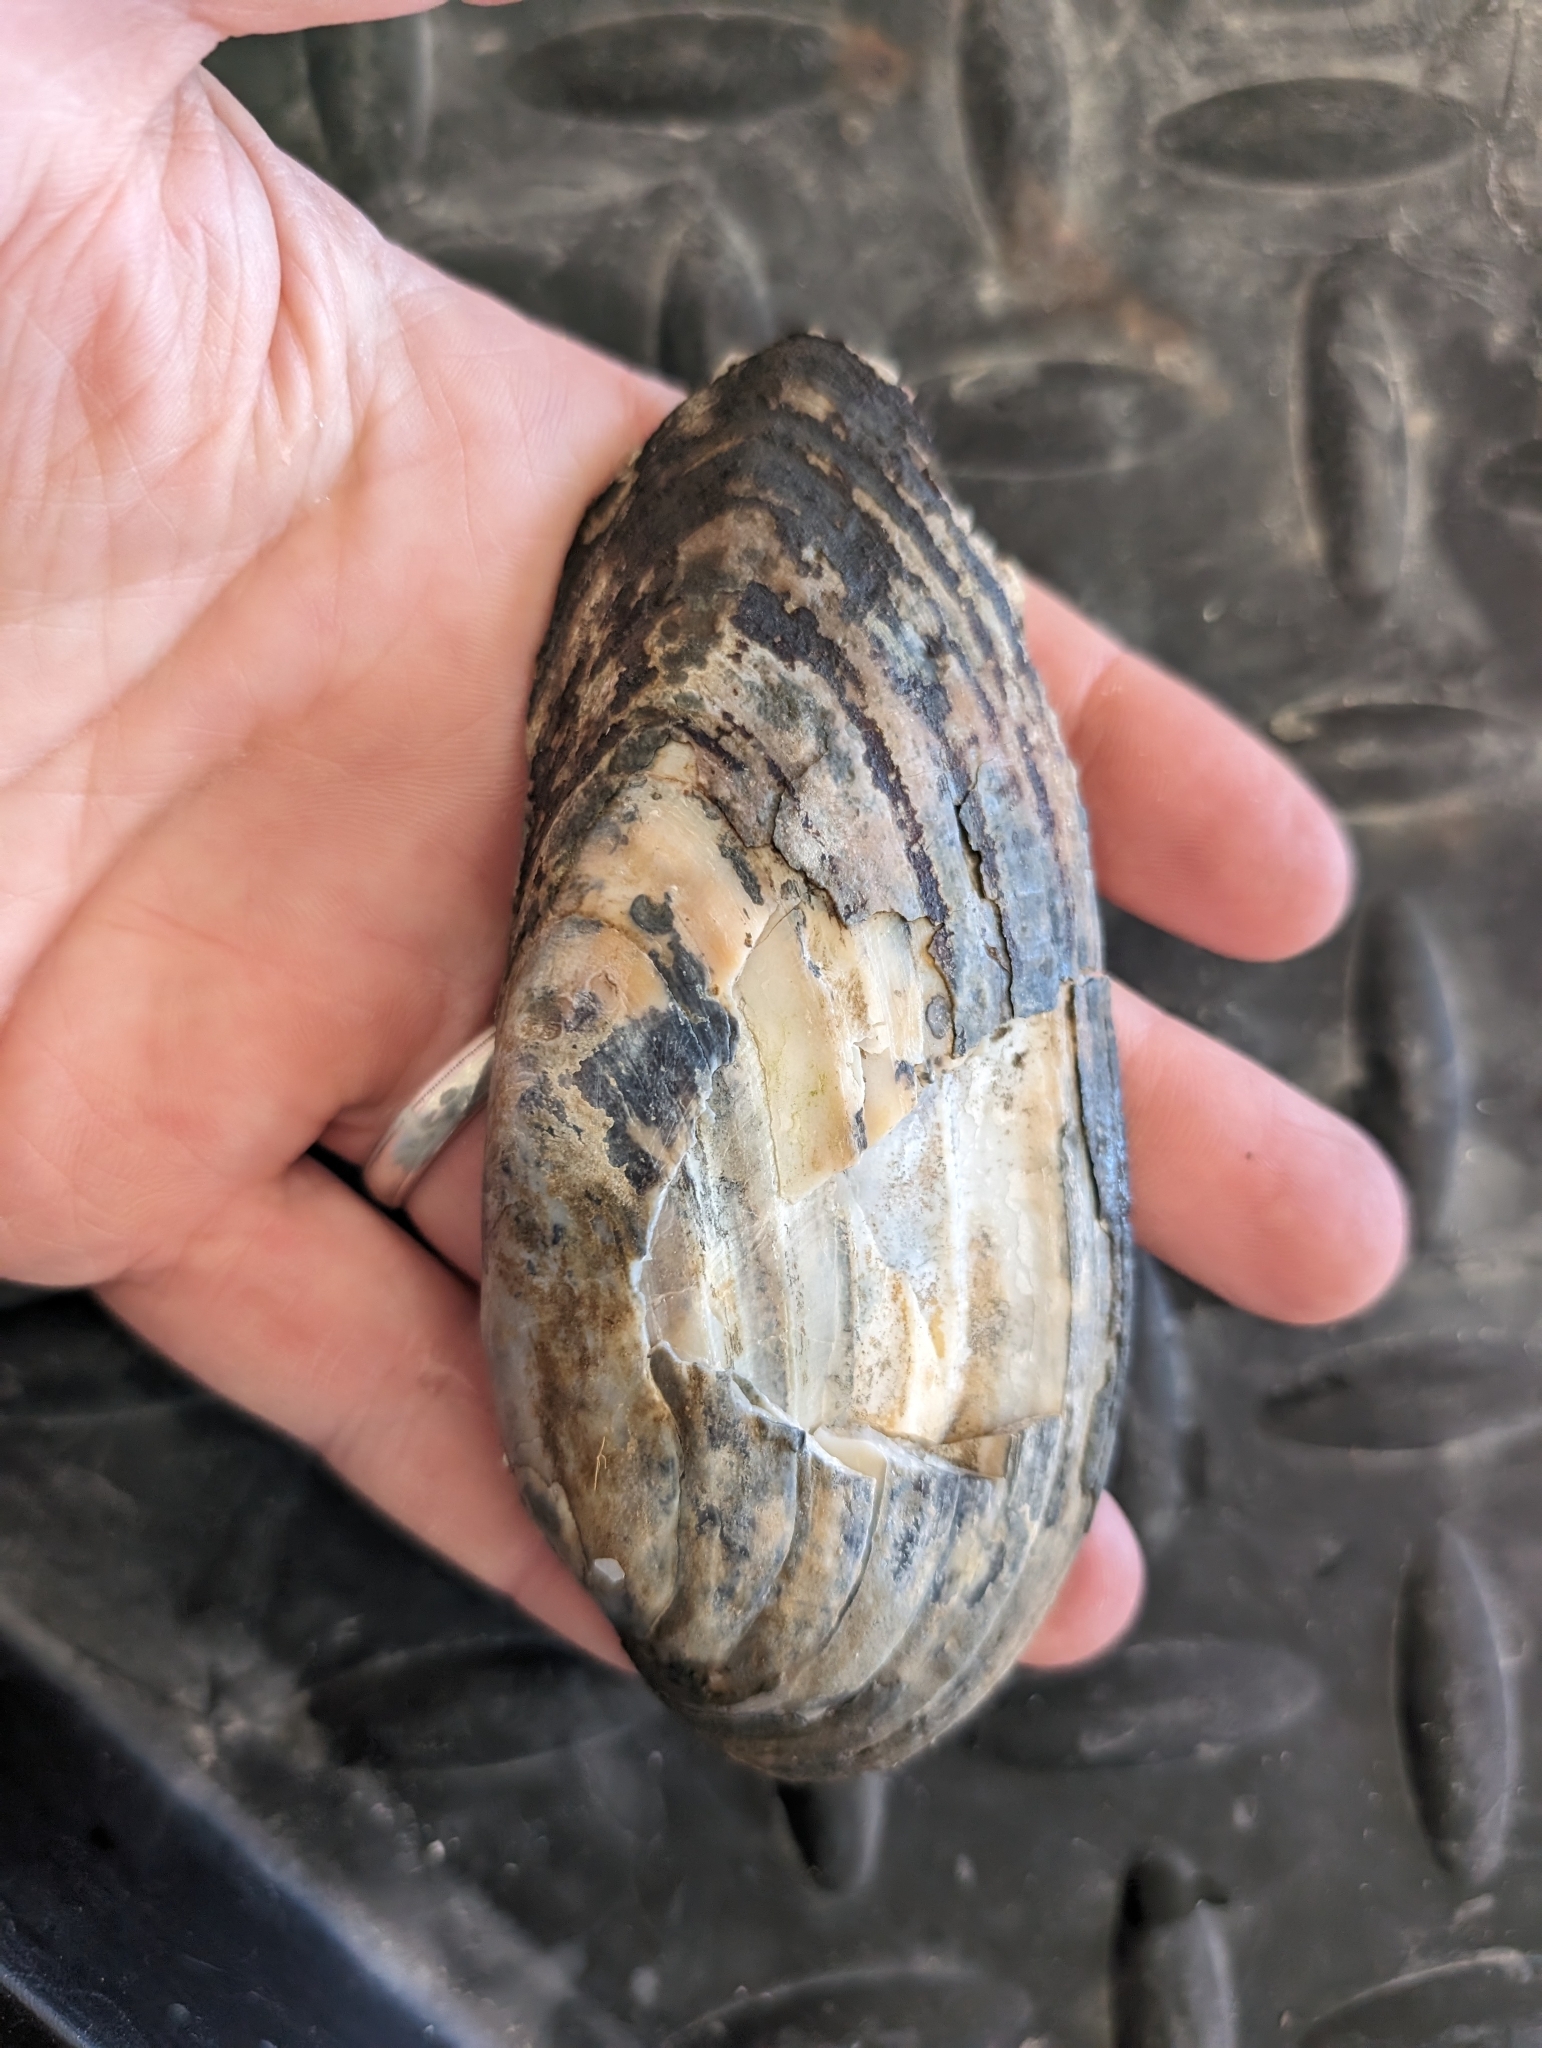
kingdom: Animalia
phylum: Mollusca
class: Bivalvia
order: Unionida
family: Unionidae
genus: Ligumia
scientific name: Ligumia recta
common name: Black sandshell
